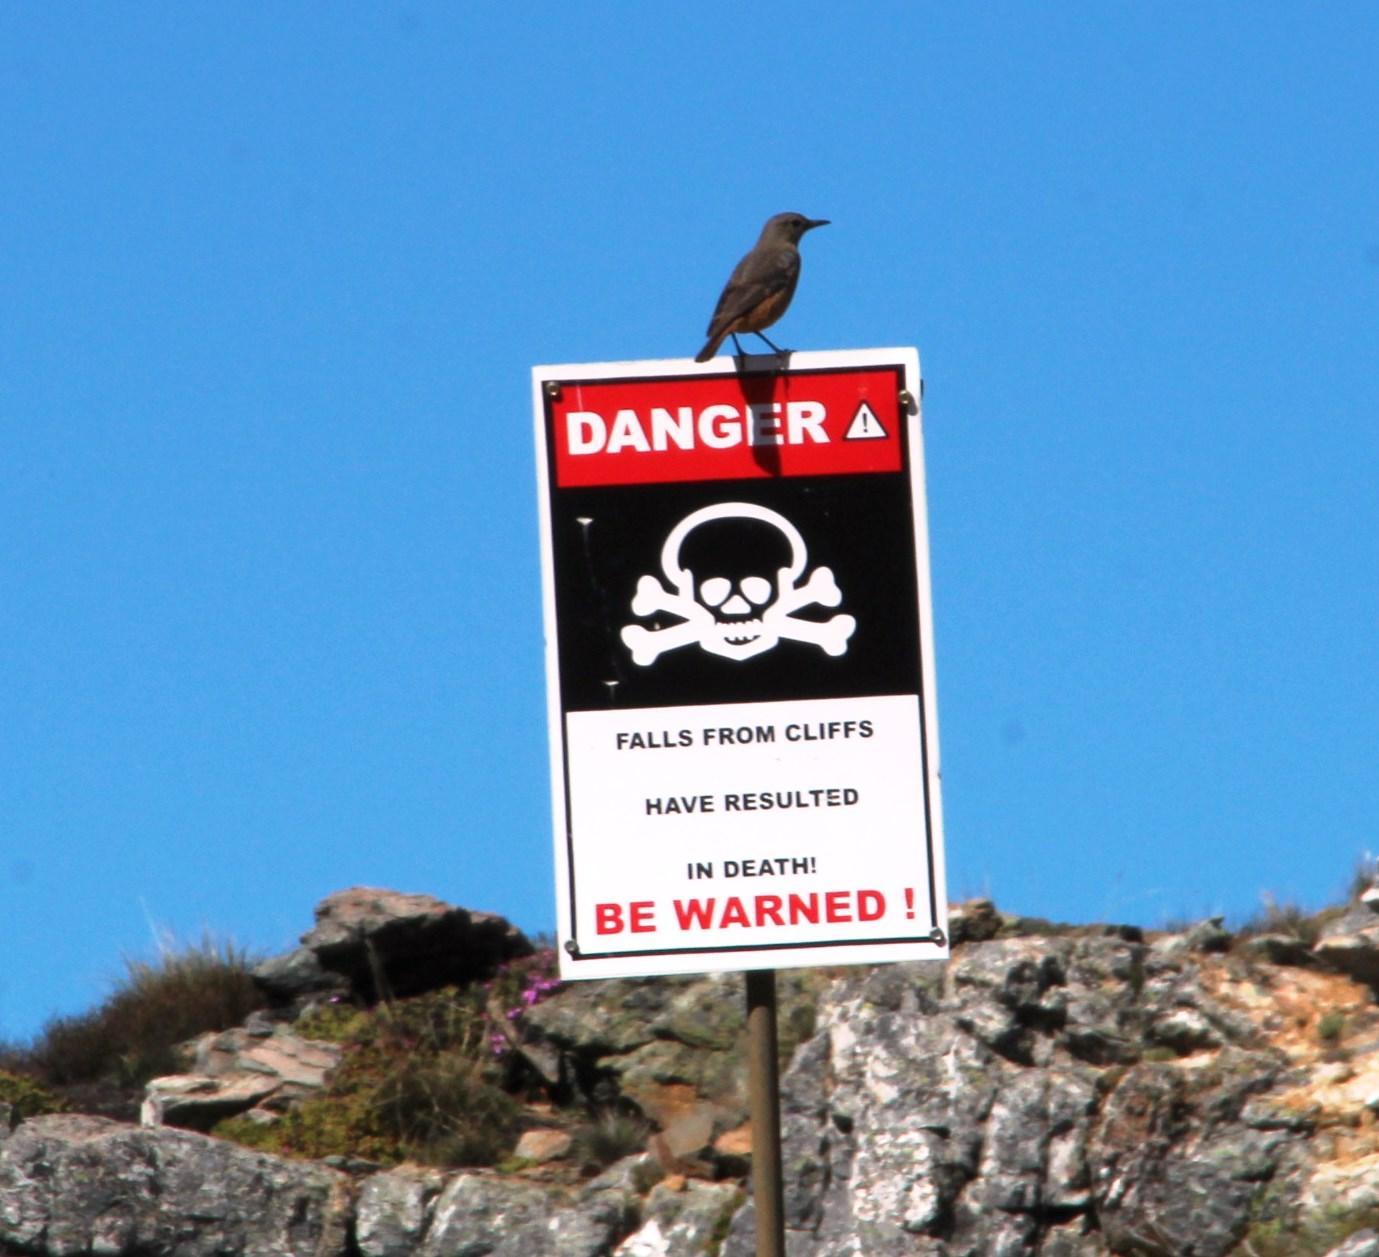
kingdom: Animalia
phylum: Chordata
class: Aves
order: Passeriformes
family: Muscicapidae
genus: Oenanthe
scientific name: Oenanthe familiaris
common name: Familiar chat
